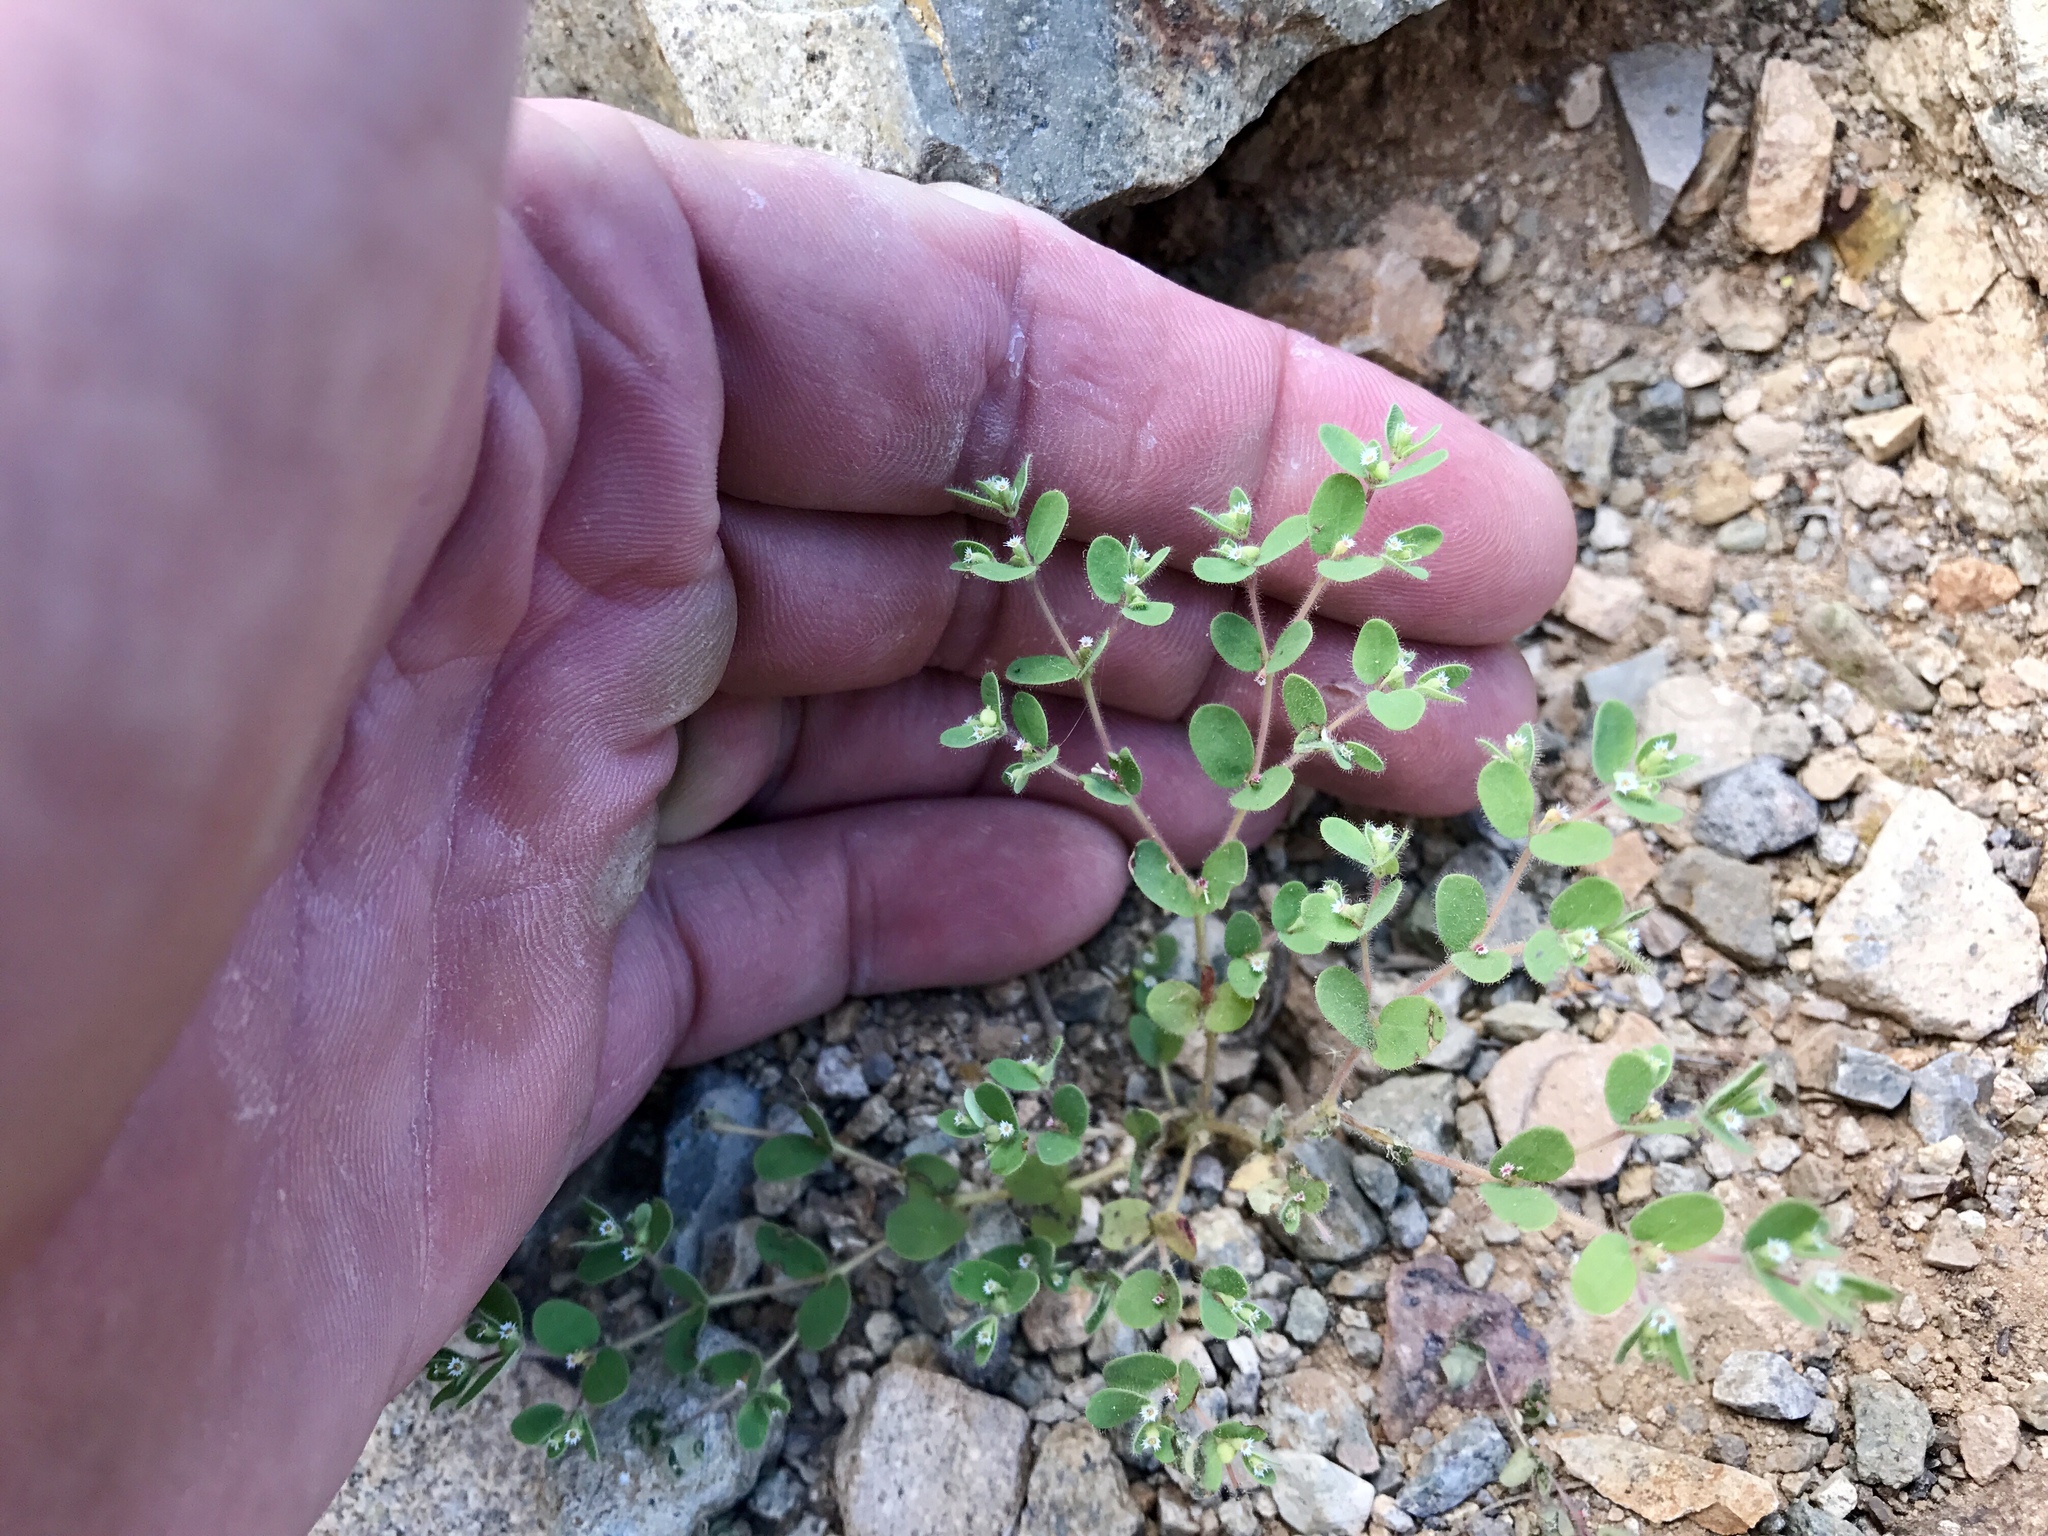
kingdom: Plantae
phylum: Tracheophyta
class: Magnoliopsida
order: Malpighiales
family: Euphorbiaceae
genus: Euphorbia
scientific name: Euphorbia setiloba
